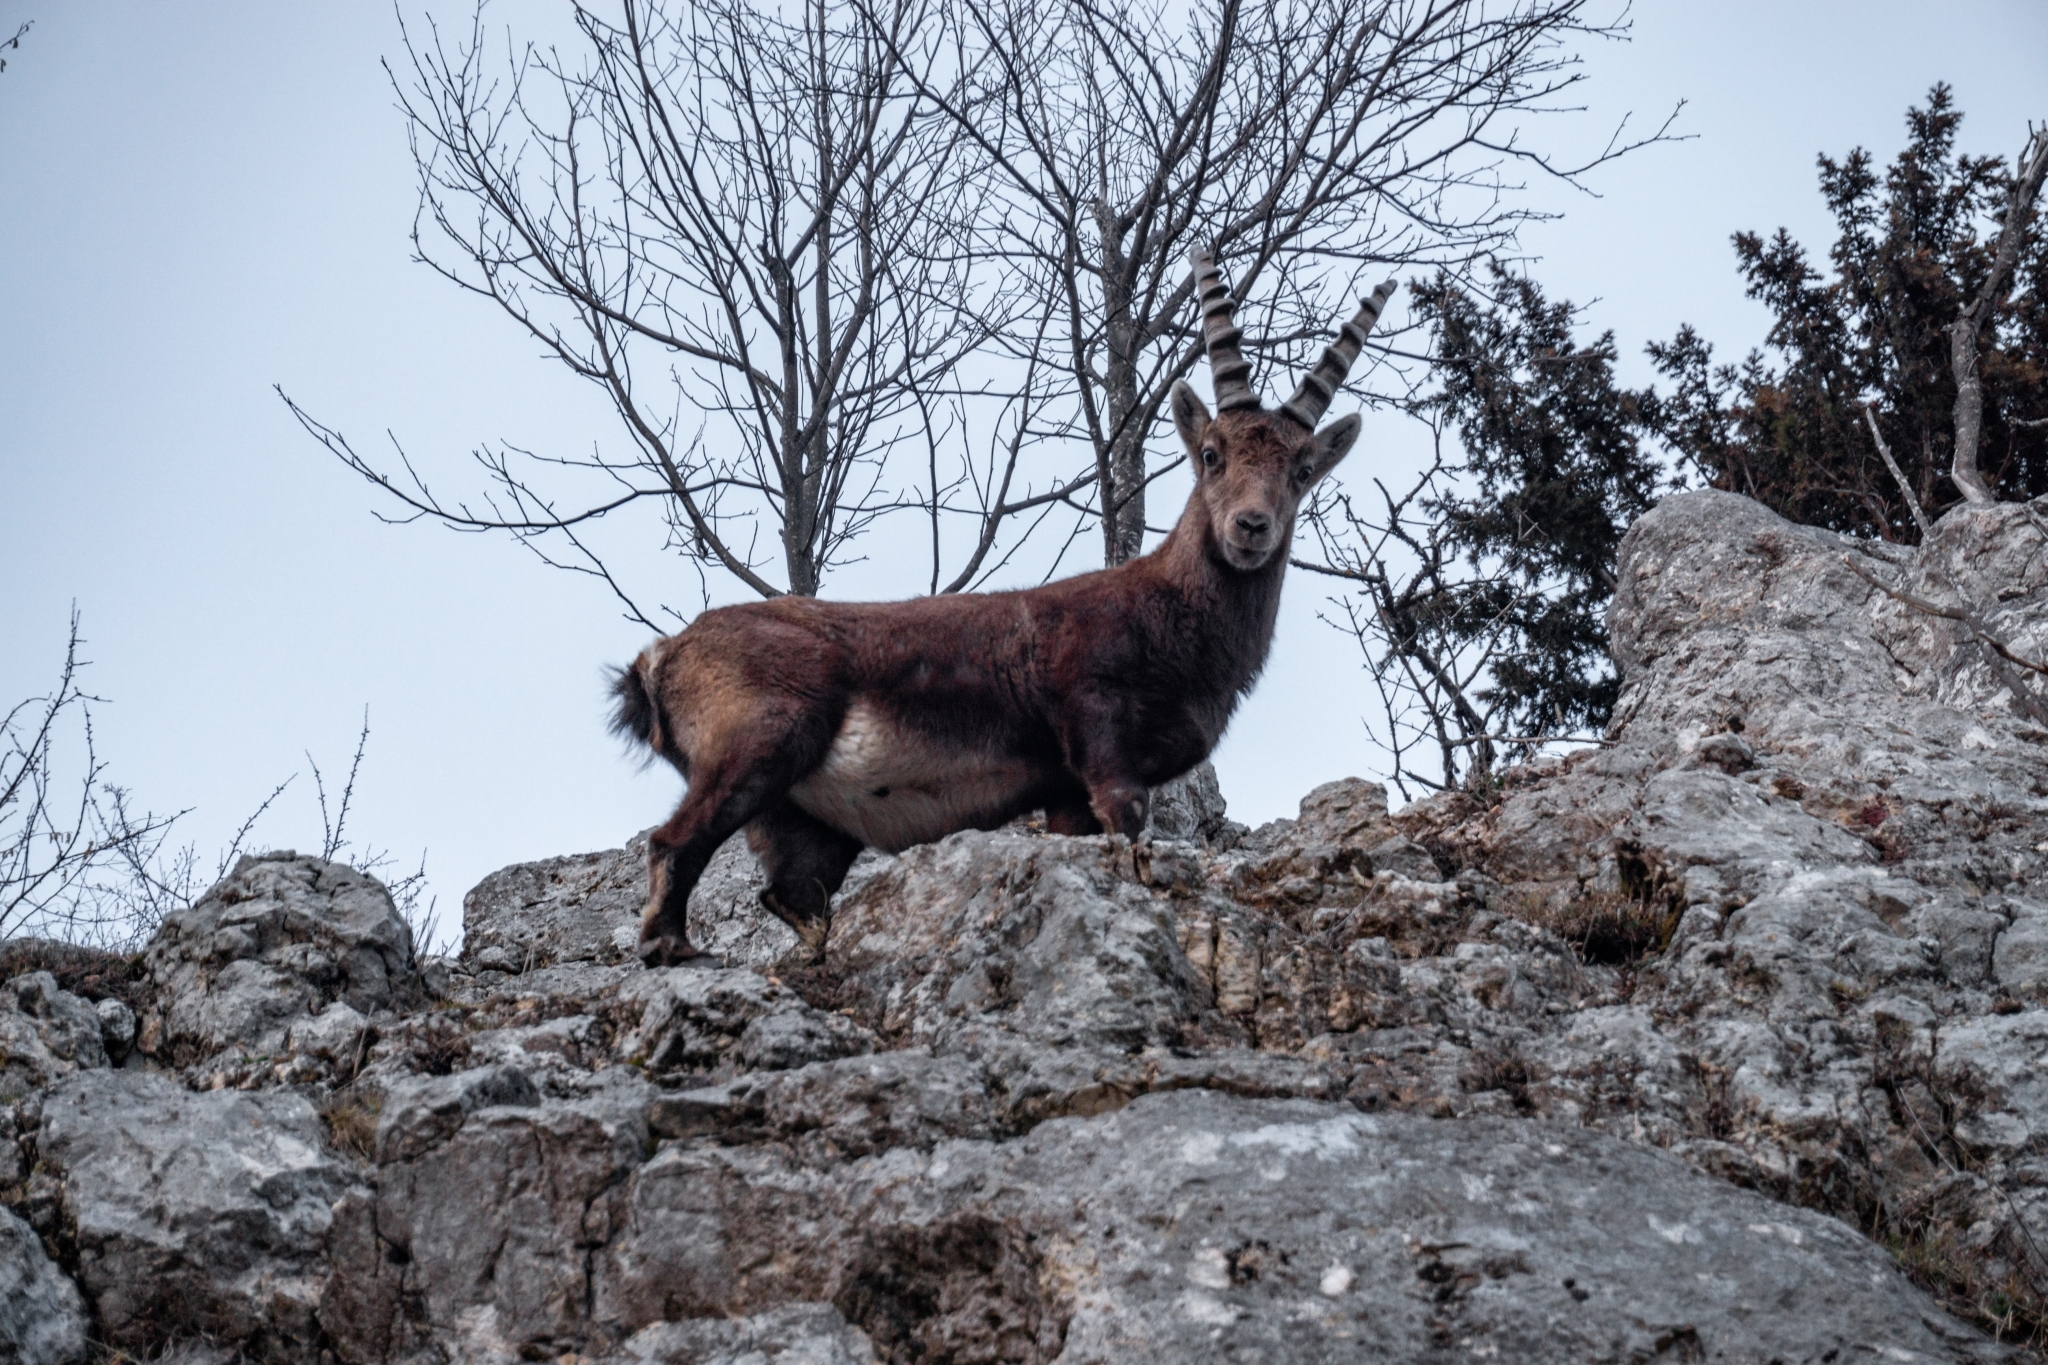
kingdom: Animalia
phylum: Chordata
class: Mammalia
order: Artiodactyla
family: Bovidae
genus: Capra
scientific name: Capra ibex
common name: Alpine ibex
